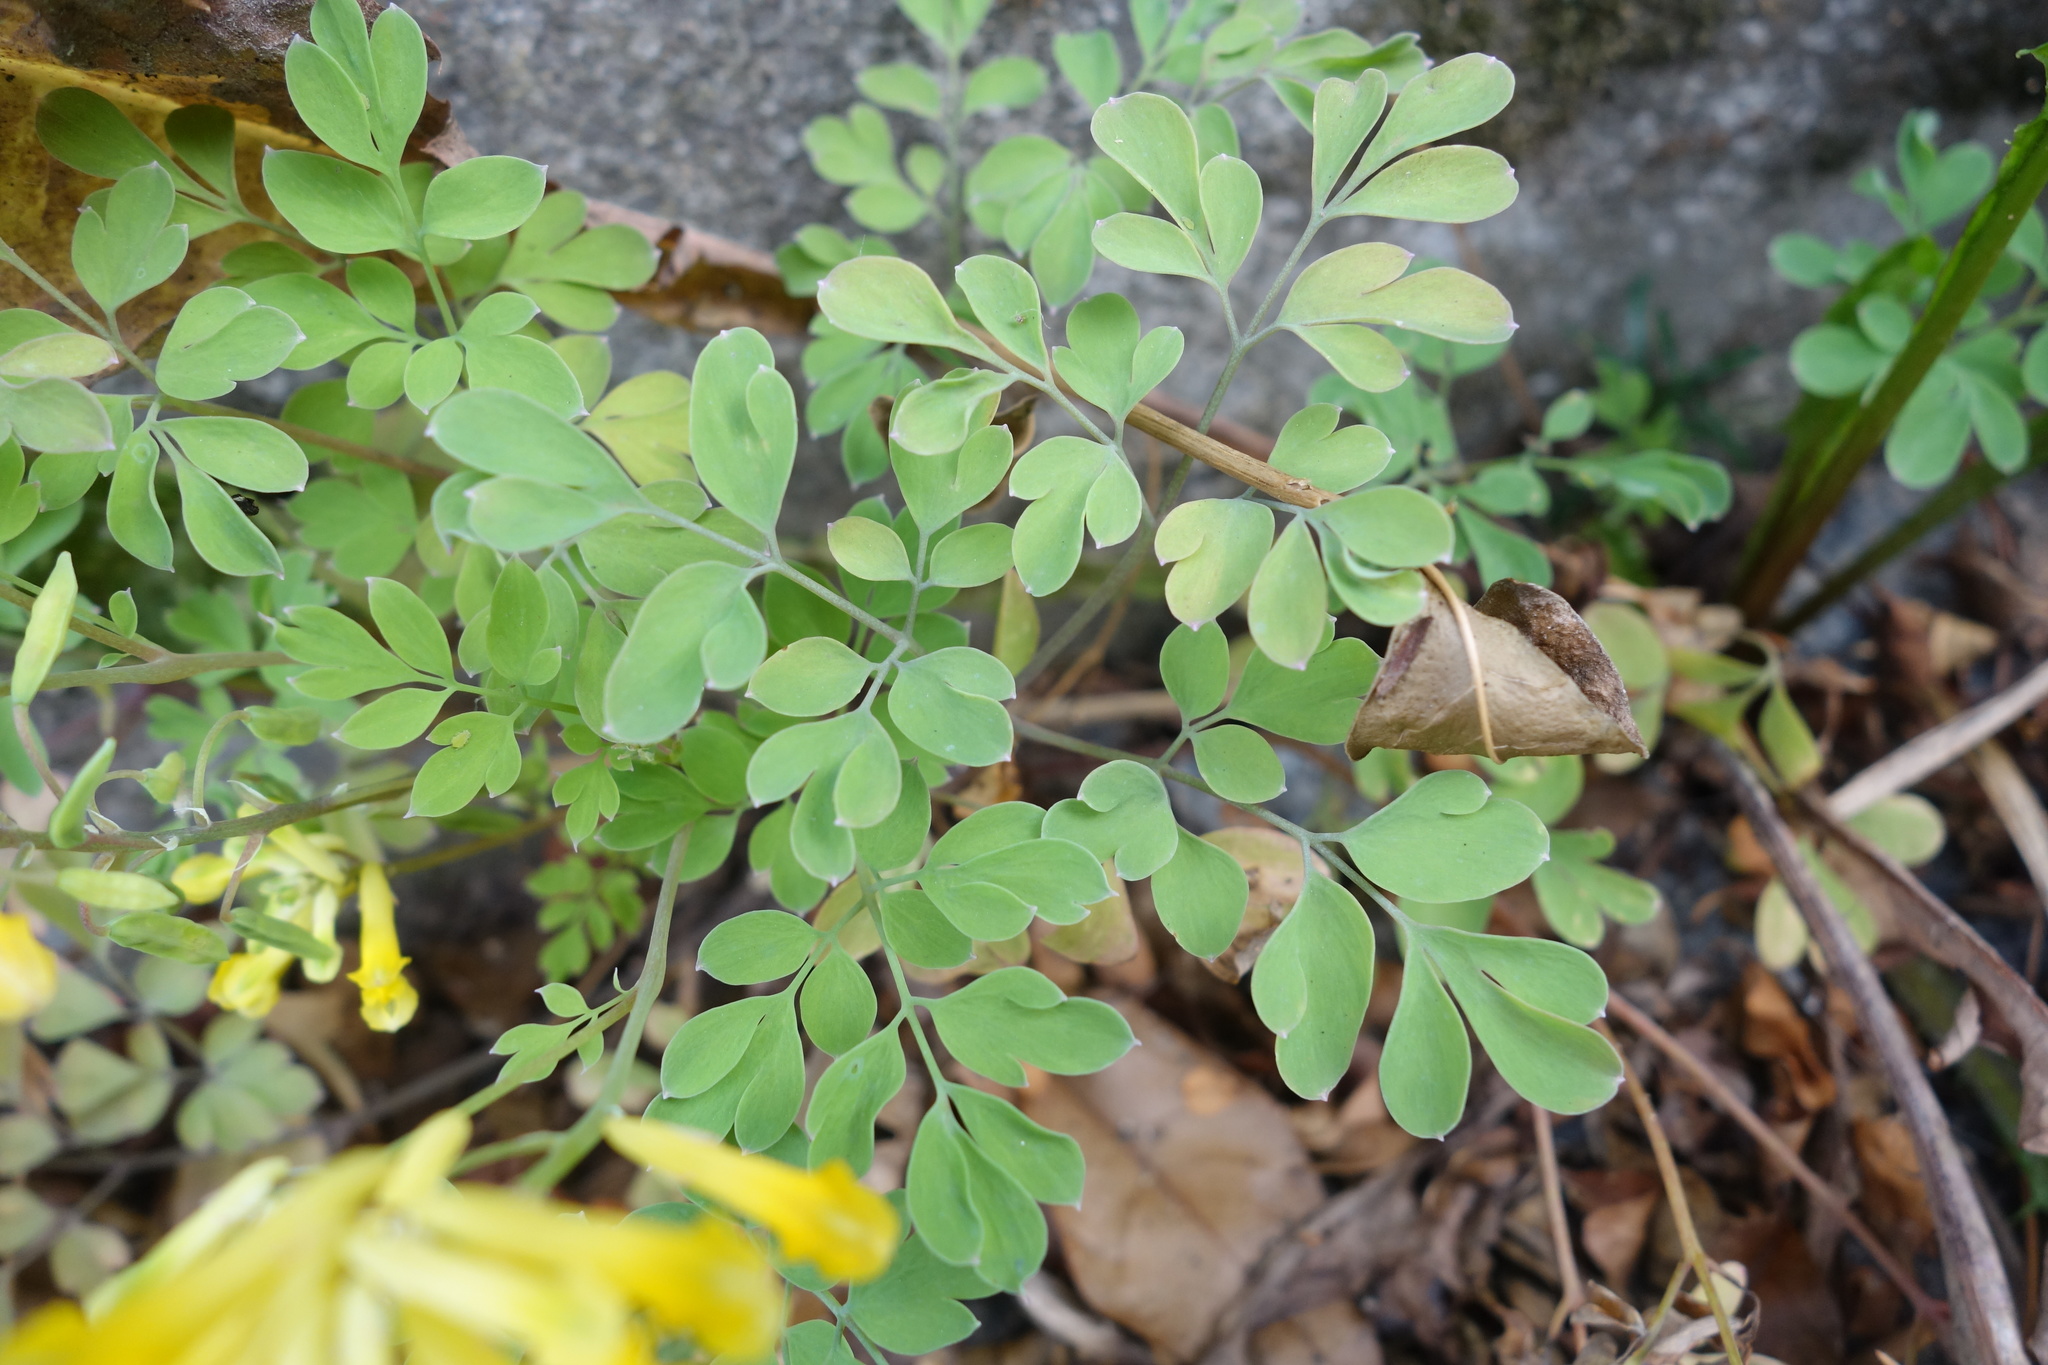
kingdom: Plantae
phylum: Tracheophyta
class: Magnoliopsida
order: Ranunculales
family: Papaveraceae
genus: Pseudofumaria
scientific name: Pseudofumaria lutea
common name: Yellow corydalis
